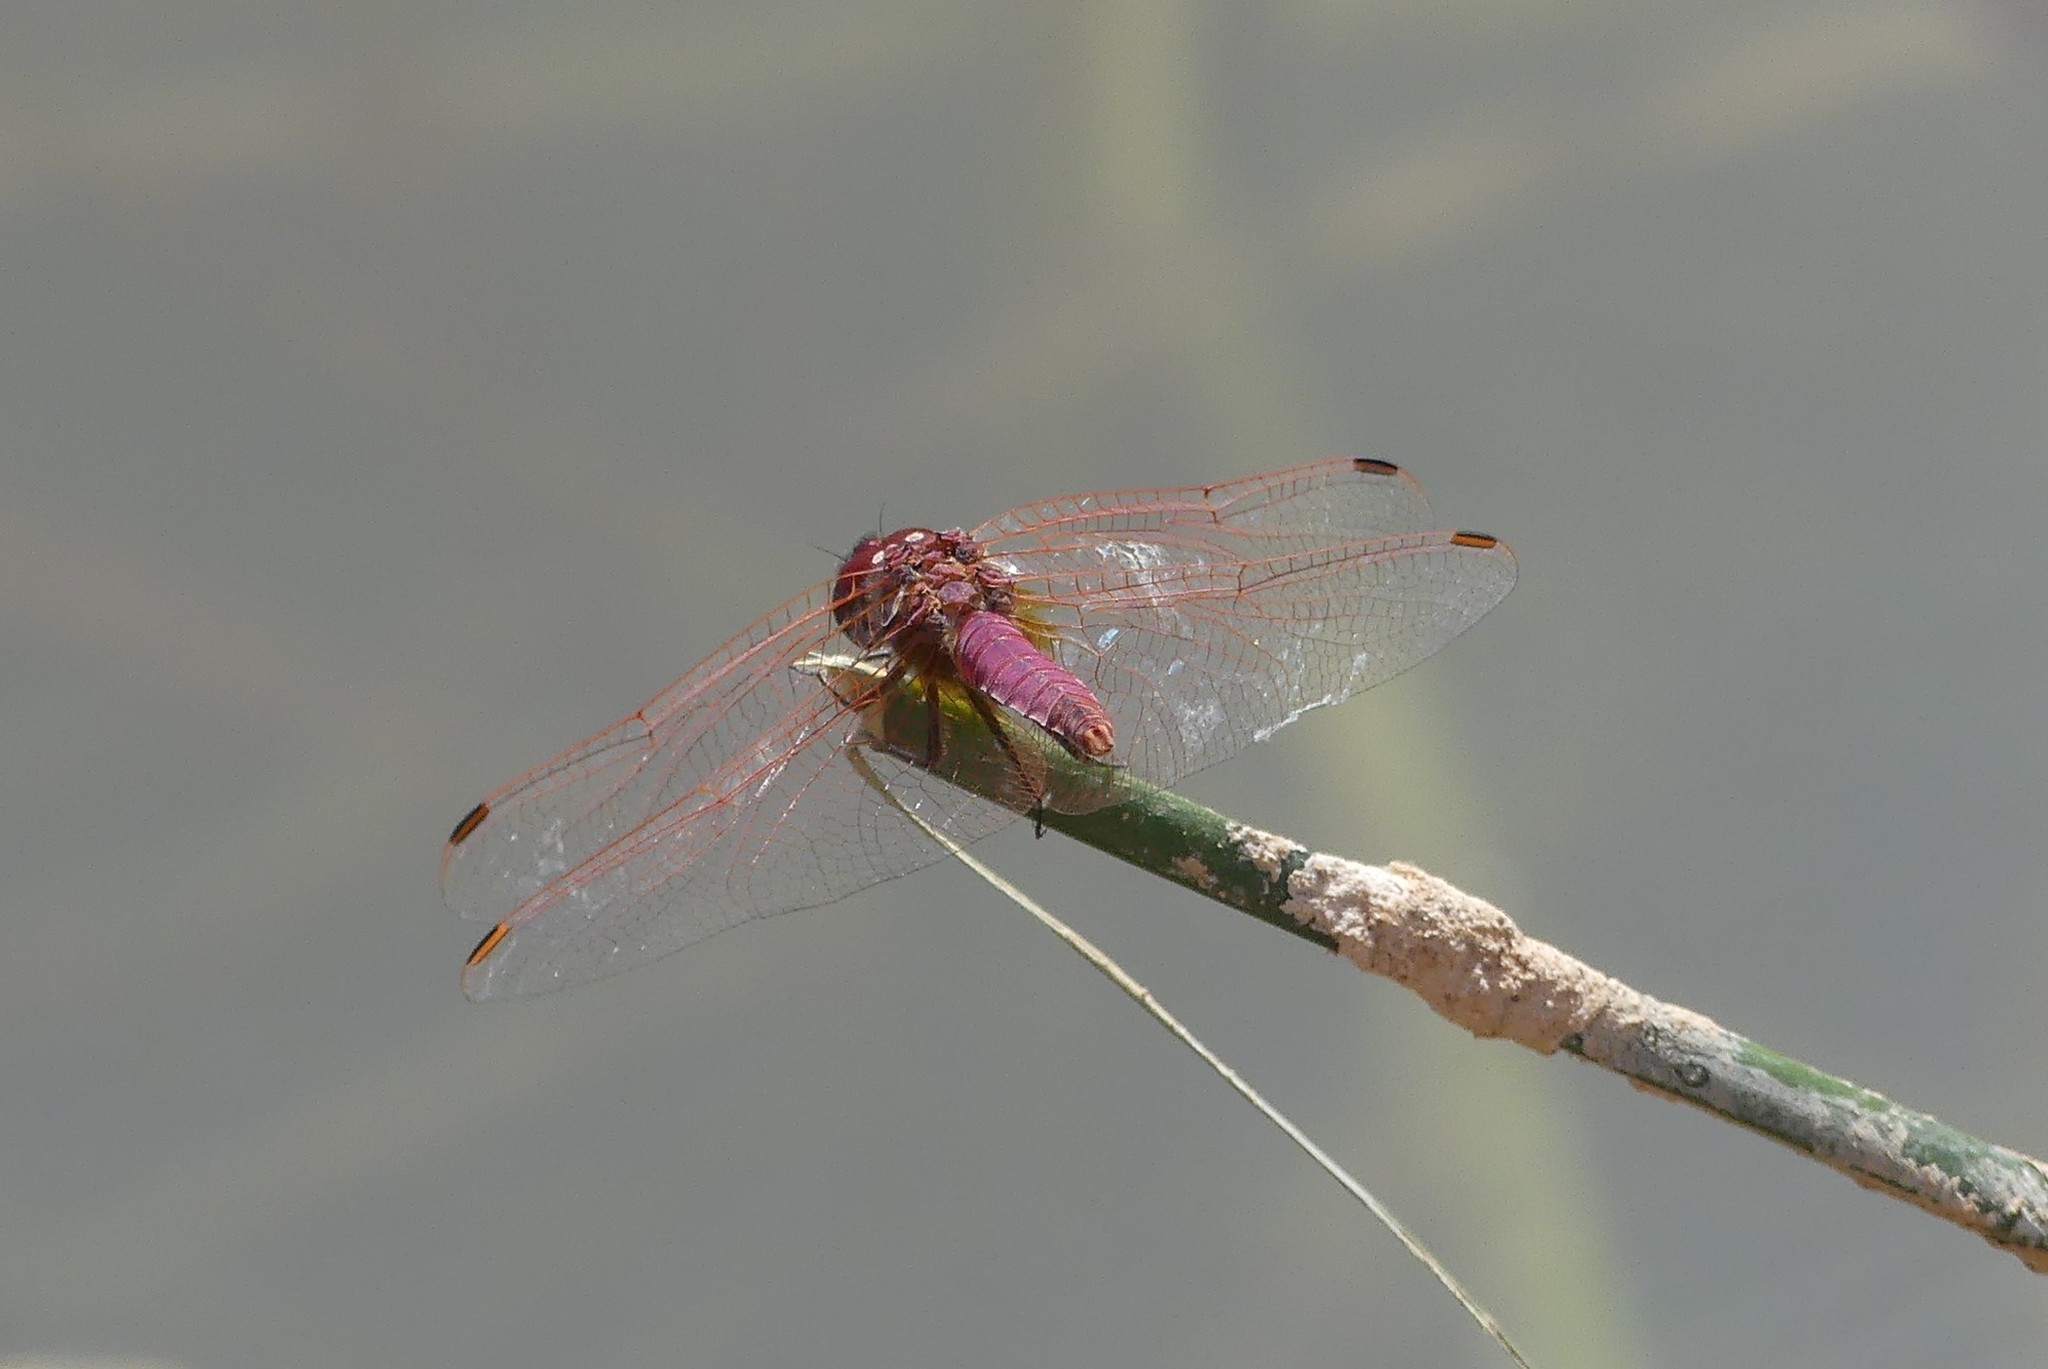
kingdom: Animalia
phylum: Arthropoda
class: Insecta
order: Odonata
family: Libellulidae
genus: Trithemis
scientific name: Trithemis annulata
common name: Violet dropwing
